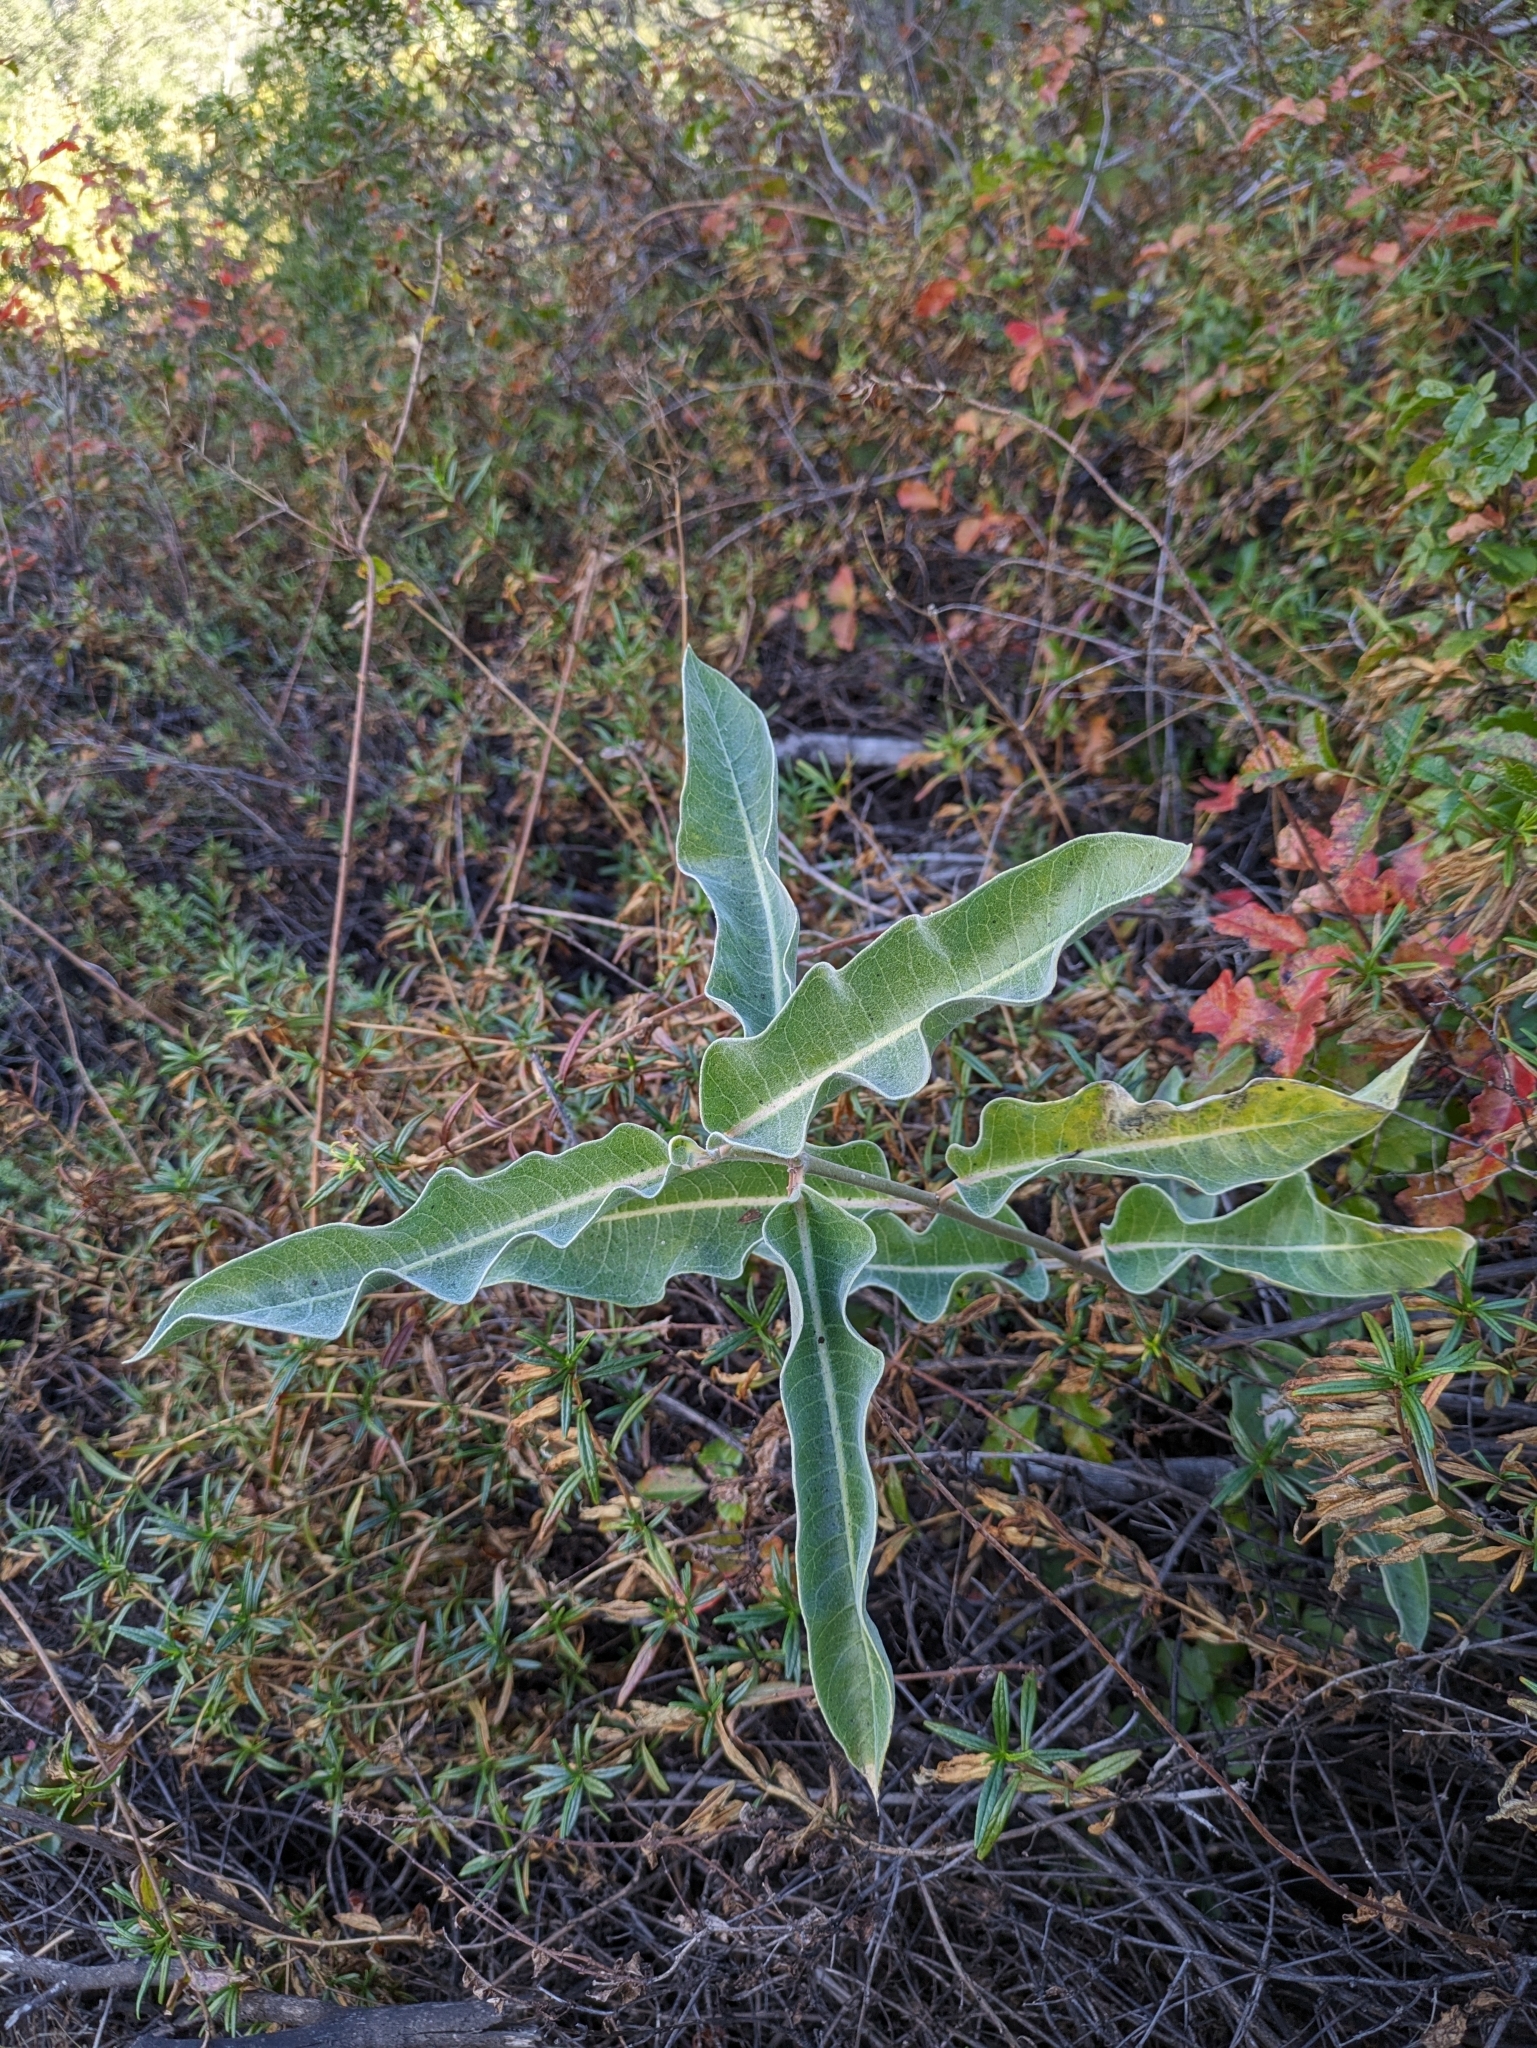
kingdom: Plantae
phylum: Tracheophyta
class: Magnoliopsida
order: Gentianales
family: Apocynaceae
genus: Asclepias
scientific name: Asclepias eriocarpa
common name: Indian milkweed
